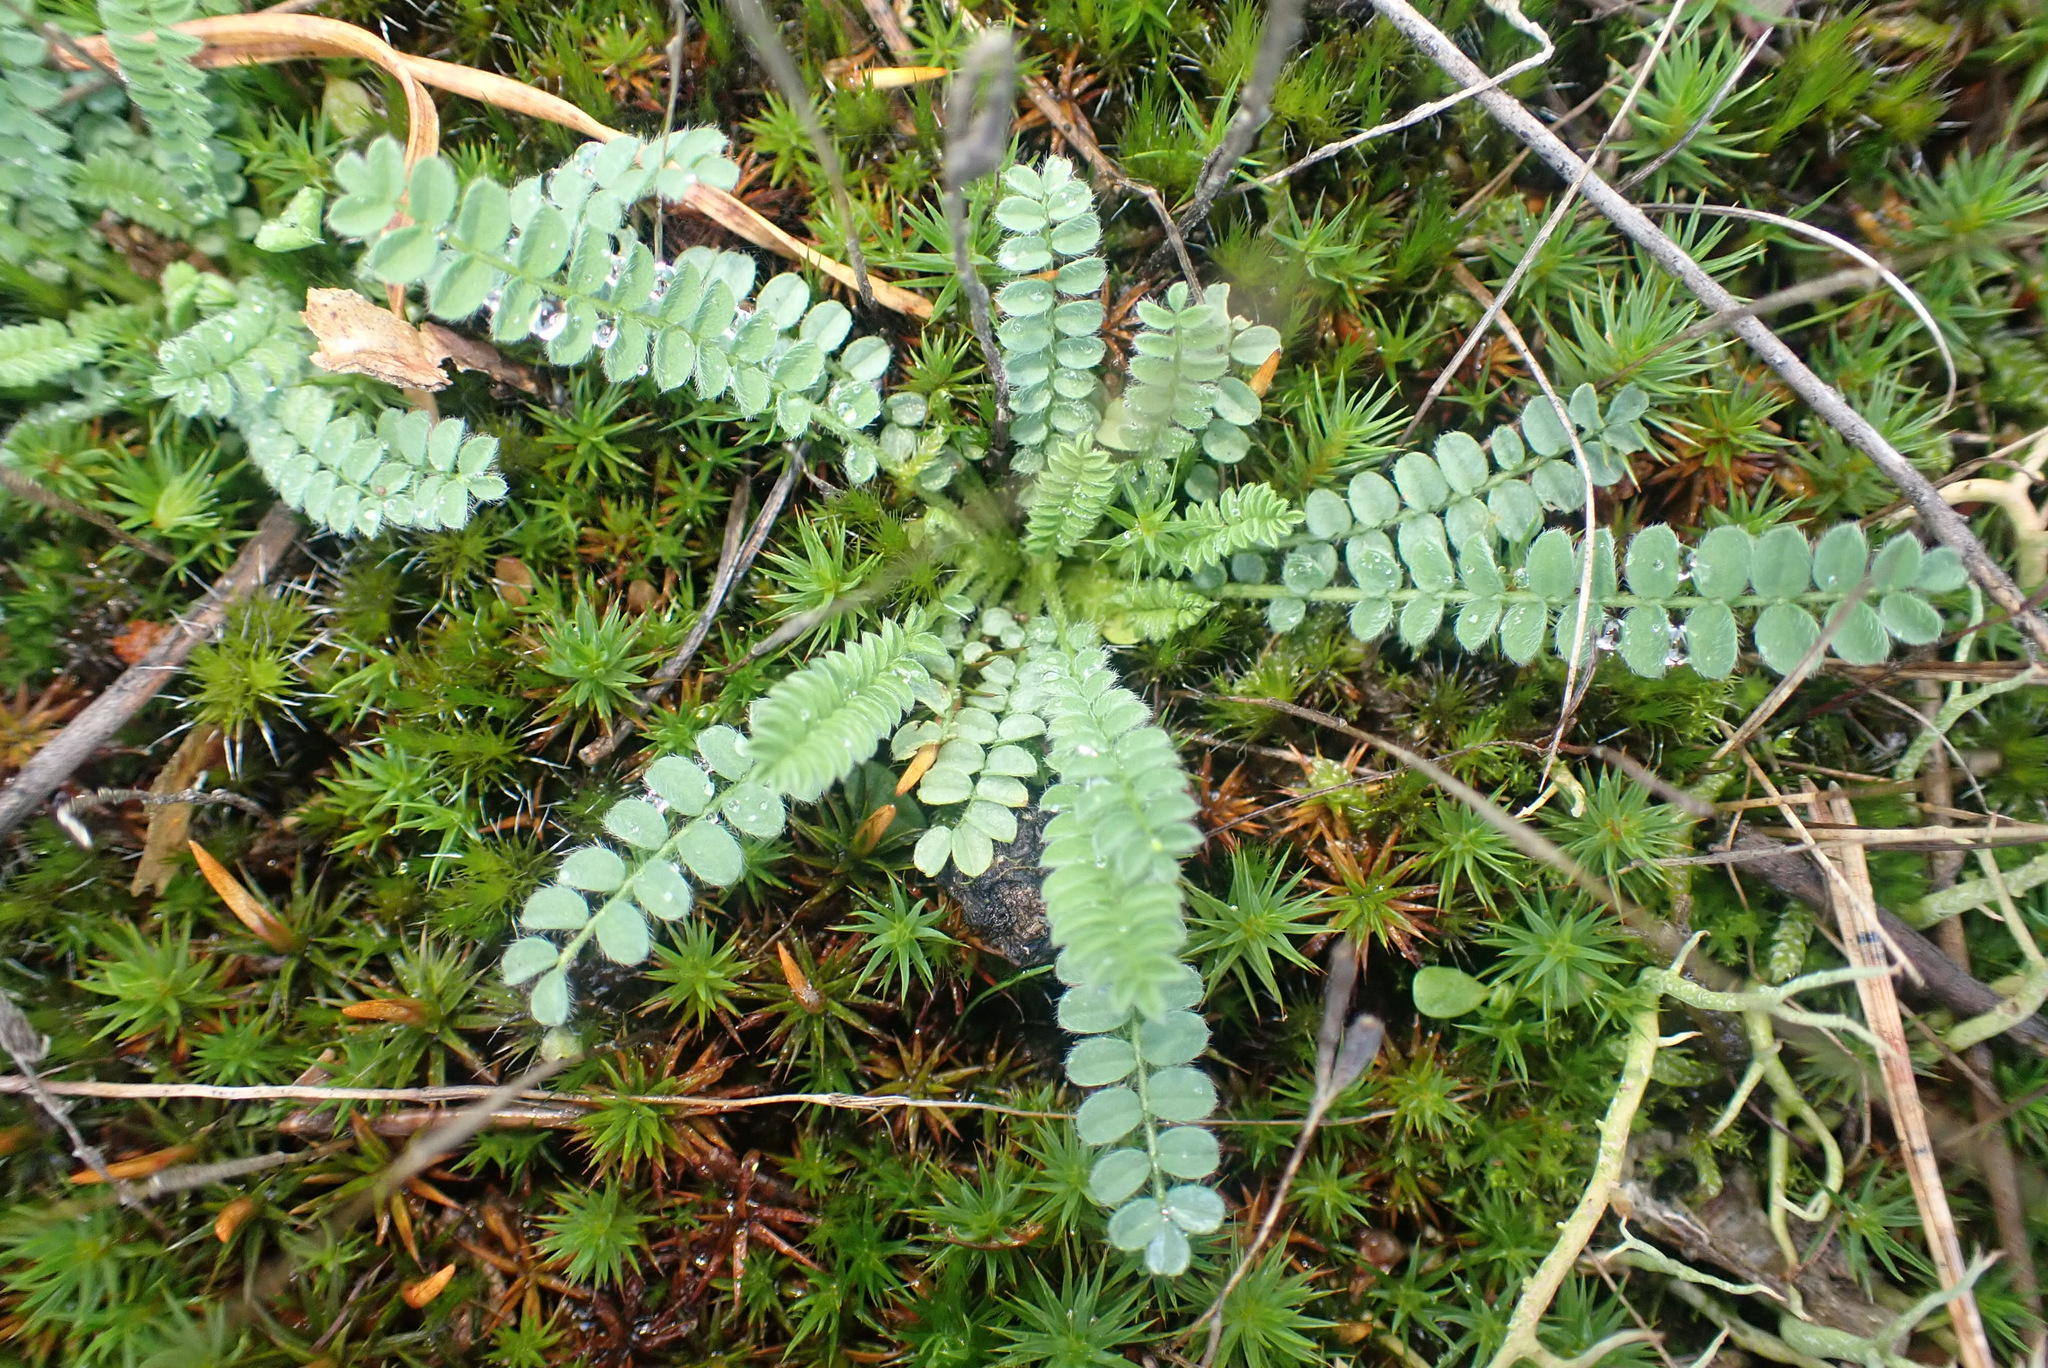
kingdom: Plantae
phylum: Tracheophyta
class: Magnoliopsida
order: Fabales
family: Fabaceae
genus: Ornithopus
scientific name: Ornithopus perpusillus
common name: Bird's-foot
